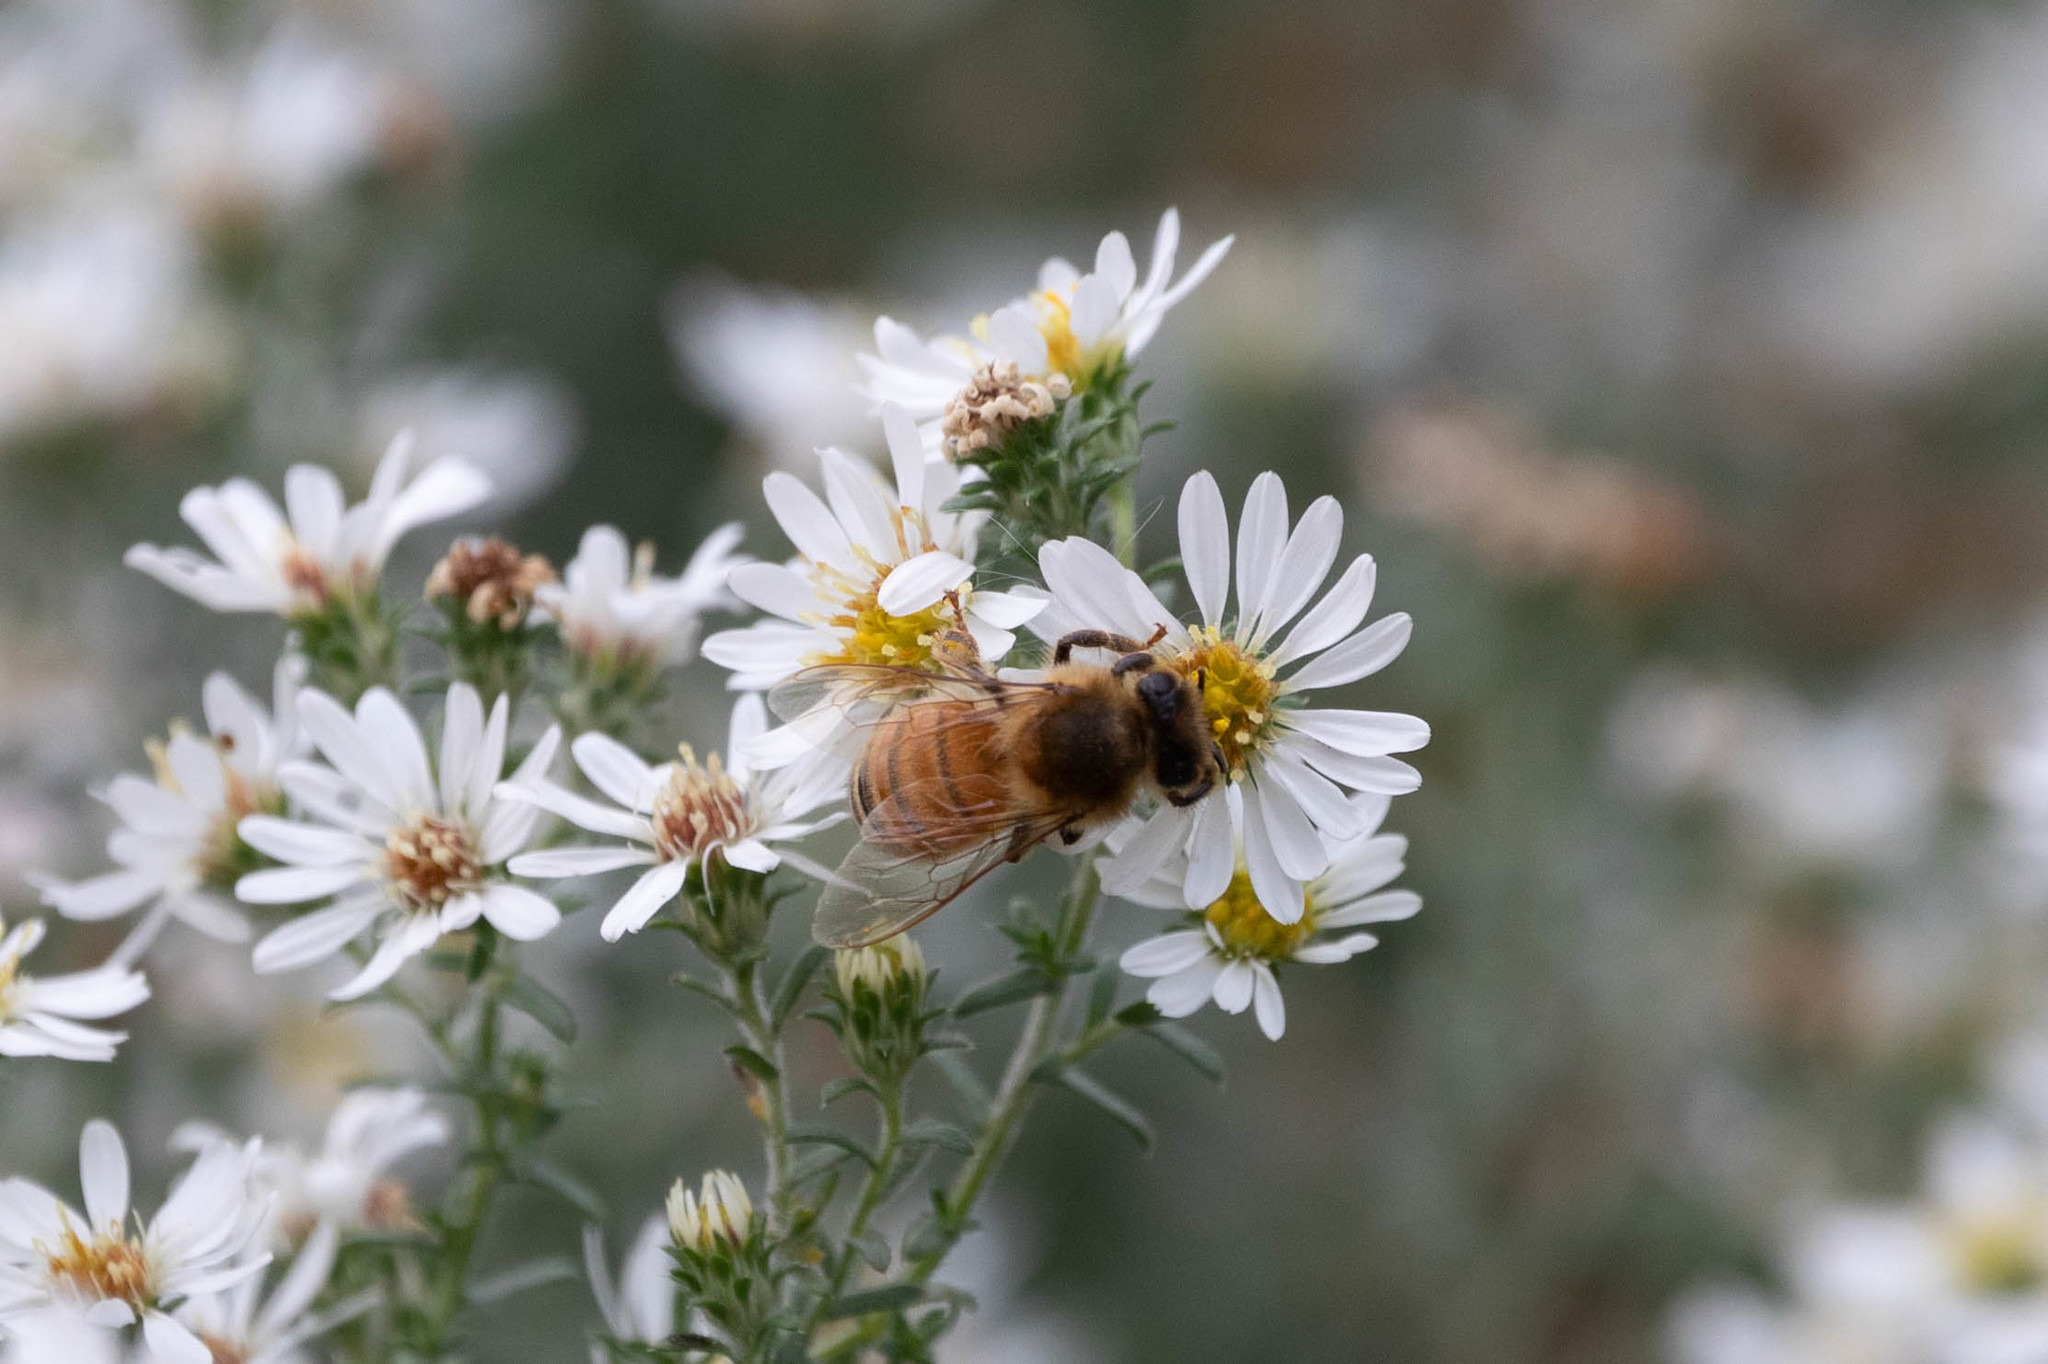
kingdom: Animalia
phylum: Arthropoda
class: Insecta
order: Hymenoptera
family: Apidae
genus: Apis
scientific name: Apis mellifera
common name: Honey bee
